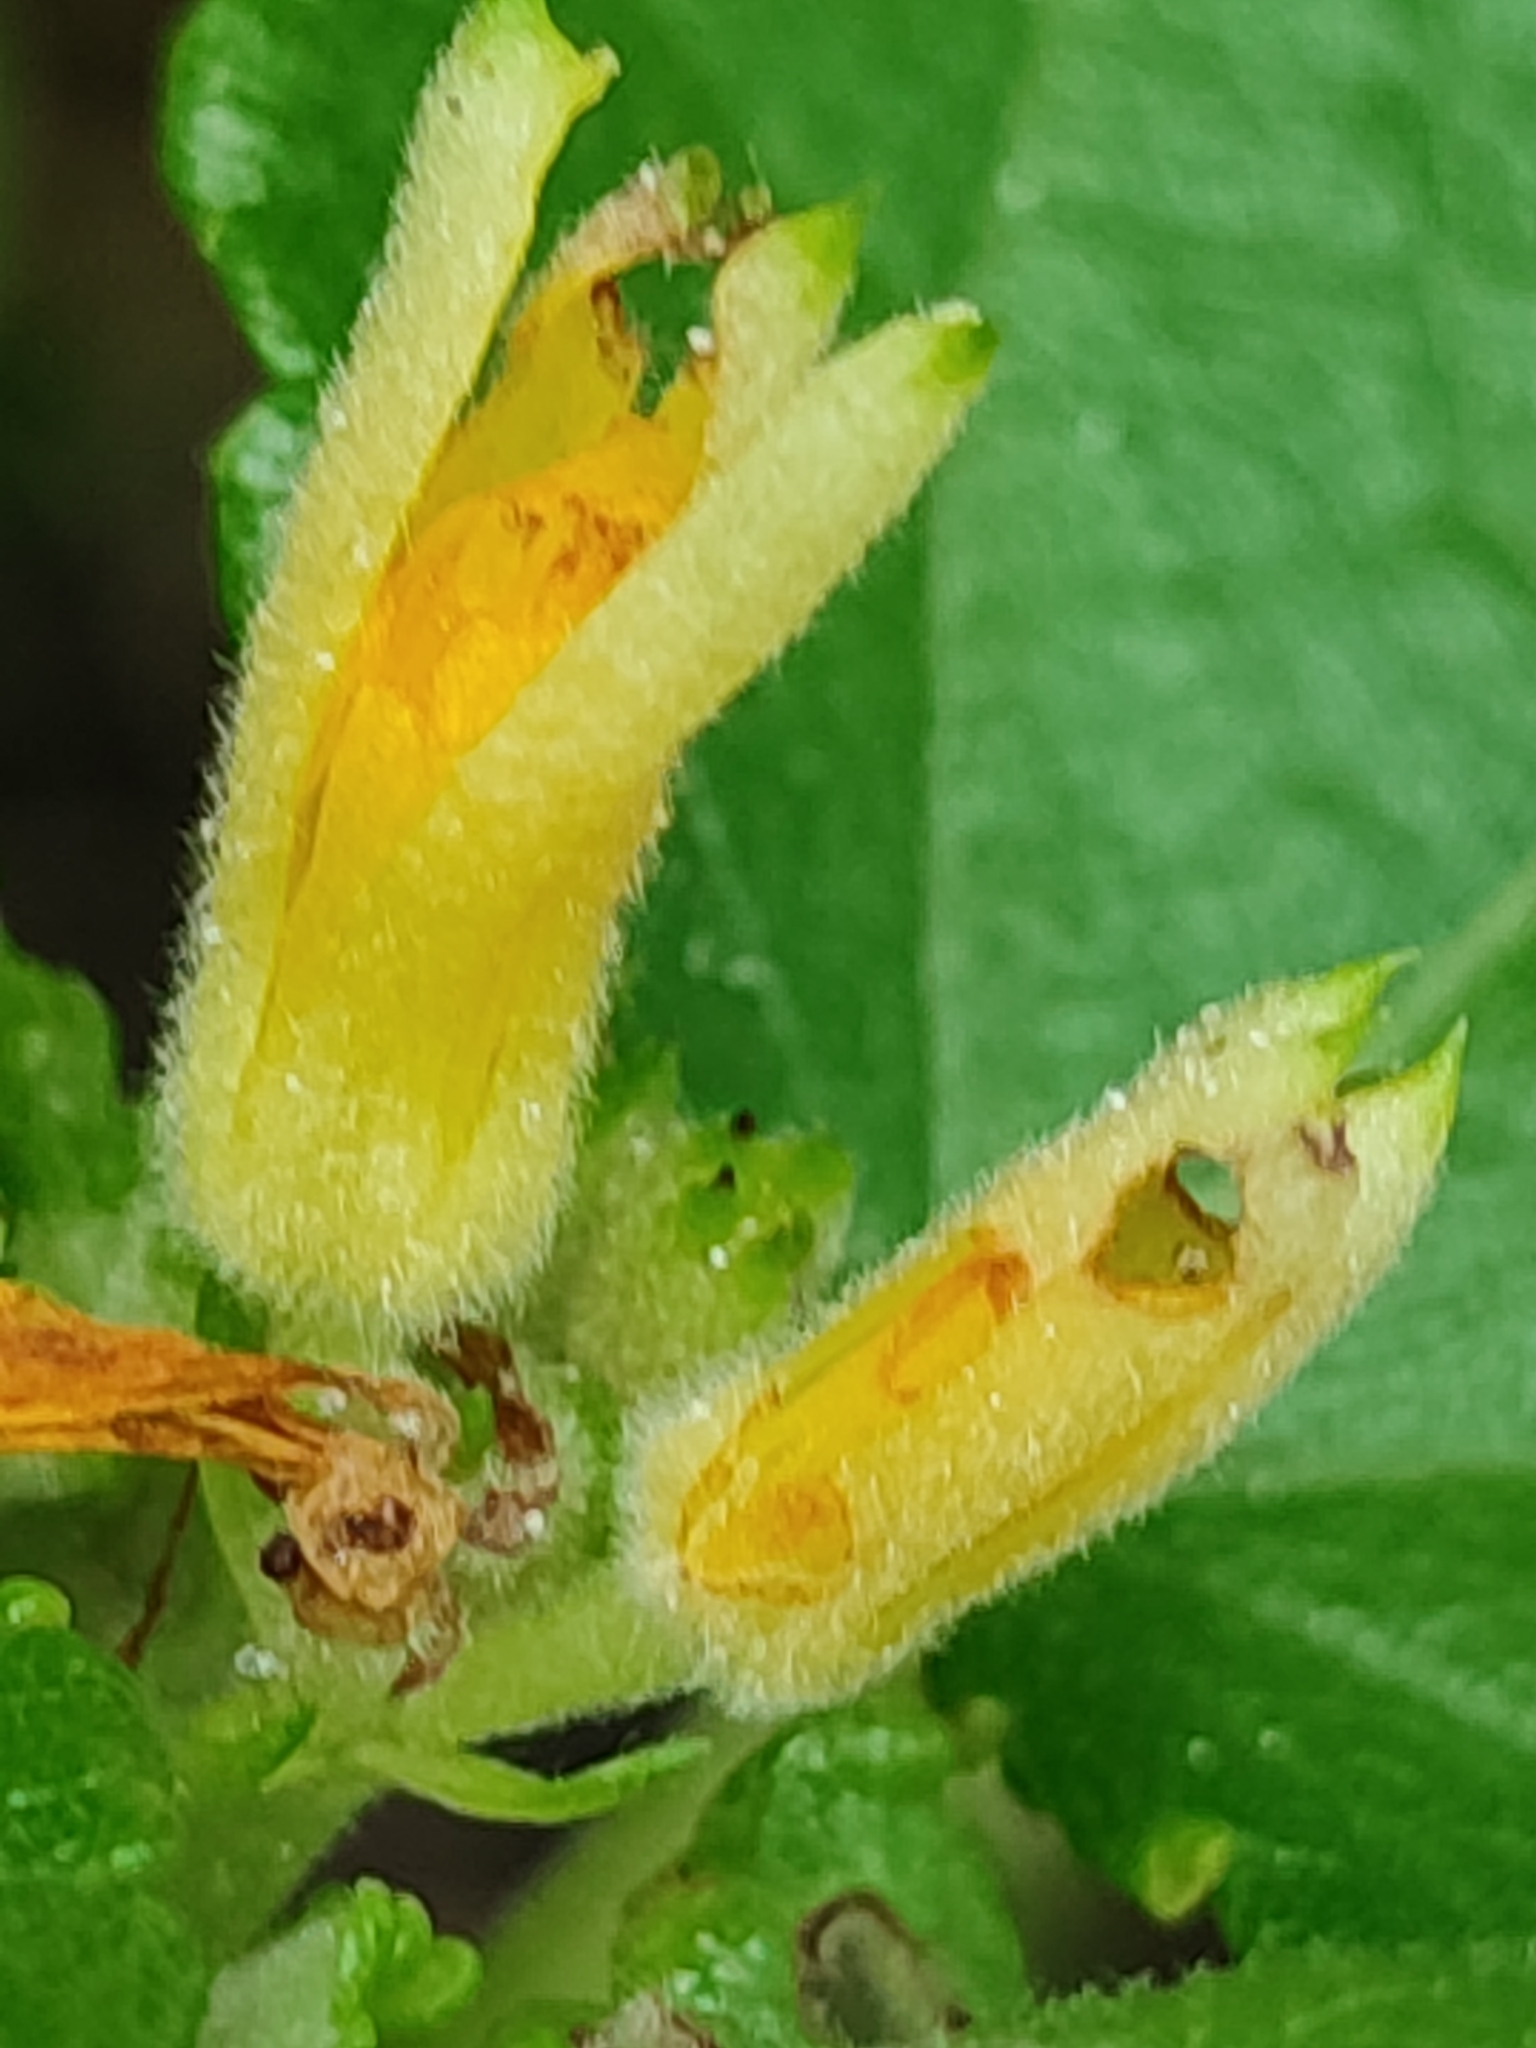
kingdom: Plantae
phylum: Tracheophyta
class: Magnoliopsida
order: Malvales
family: Malvaceae
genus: Triumfetta
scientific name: Triumfetta procumbens
